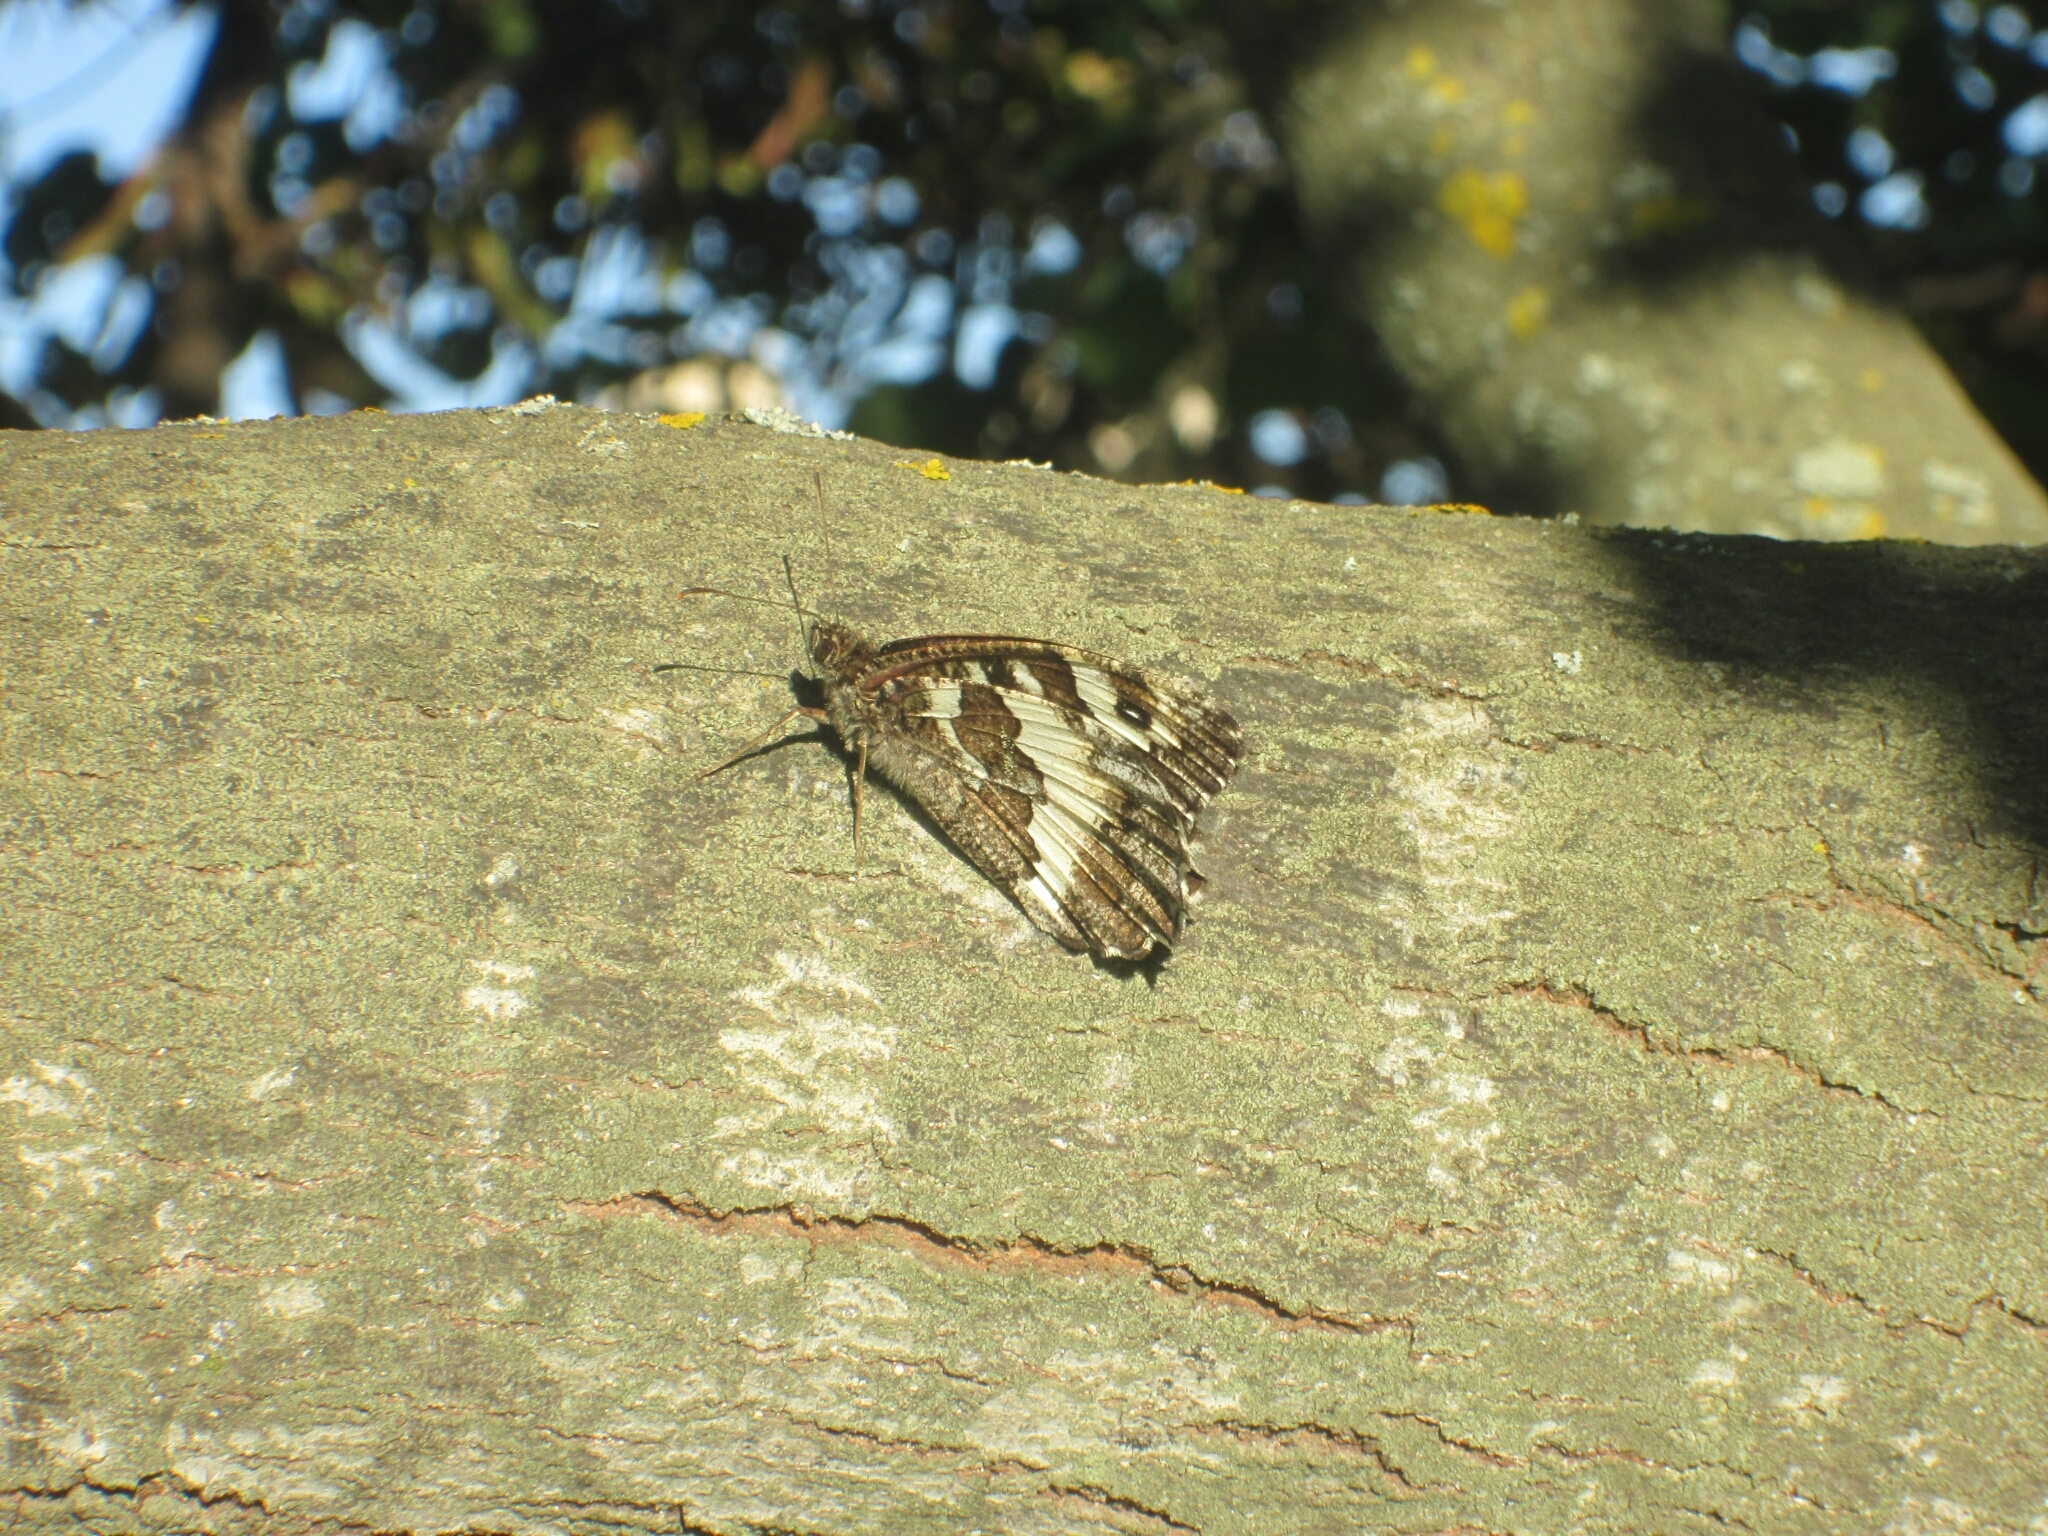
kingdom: Animalia
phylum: Arthropoda
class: Insecta
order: Lepidoptera
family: Lycaenidae
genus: Loweia
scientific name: Loweia tityrus
